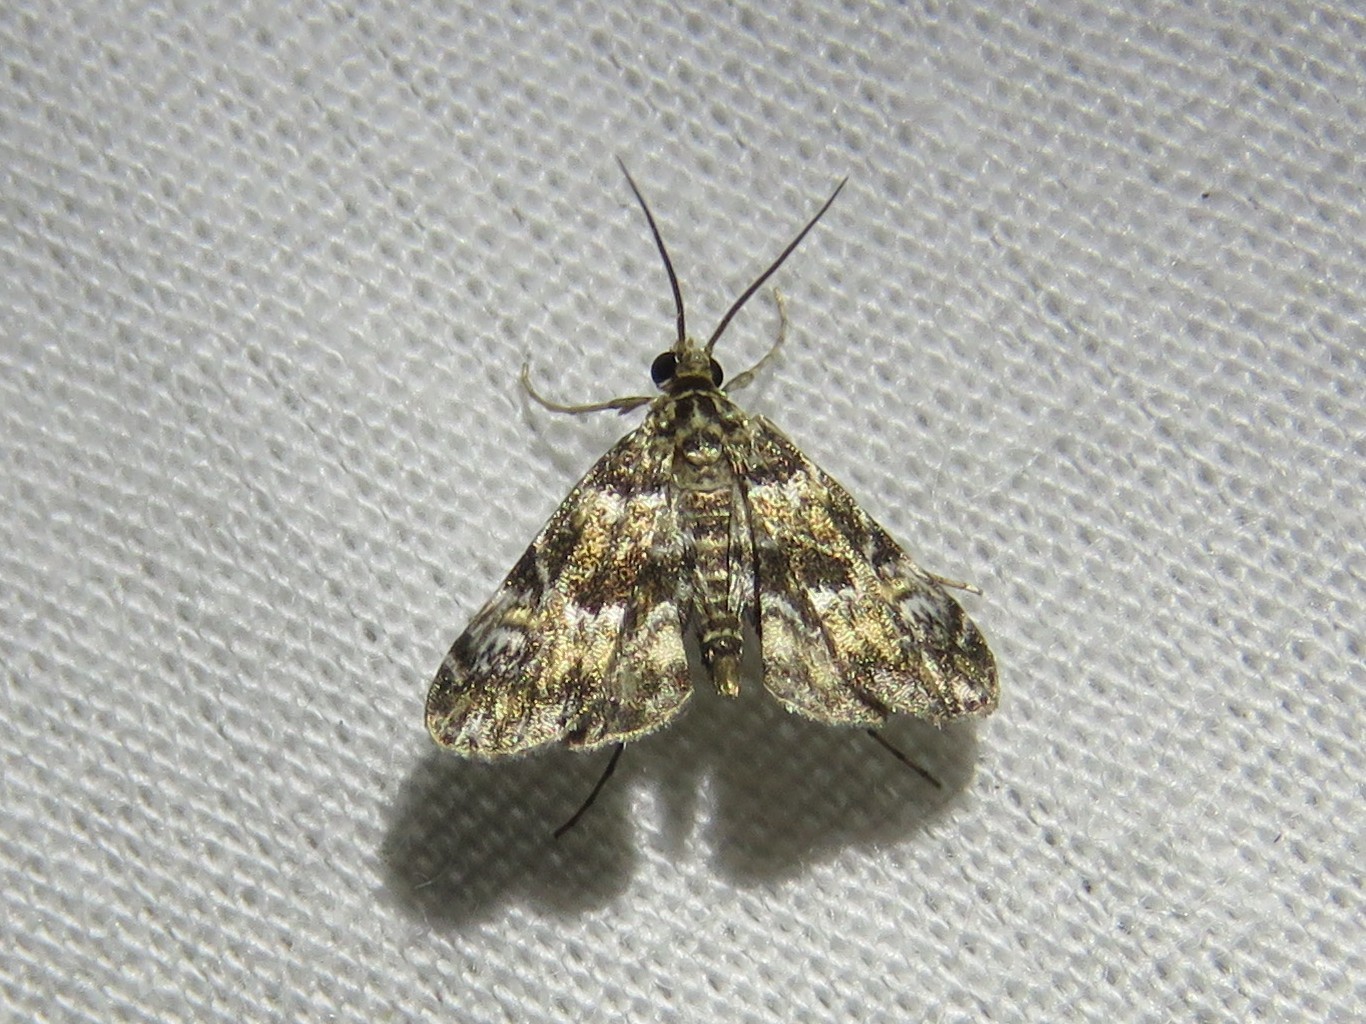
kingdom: Animalia
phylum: Arthropoda
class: Insecta
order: Lepidoptera
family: Crambidae
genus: Elophila
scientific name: Elophila obliteralis
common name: Waterlily leafcutter moth
